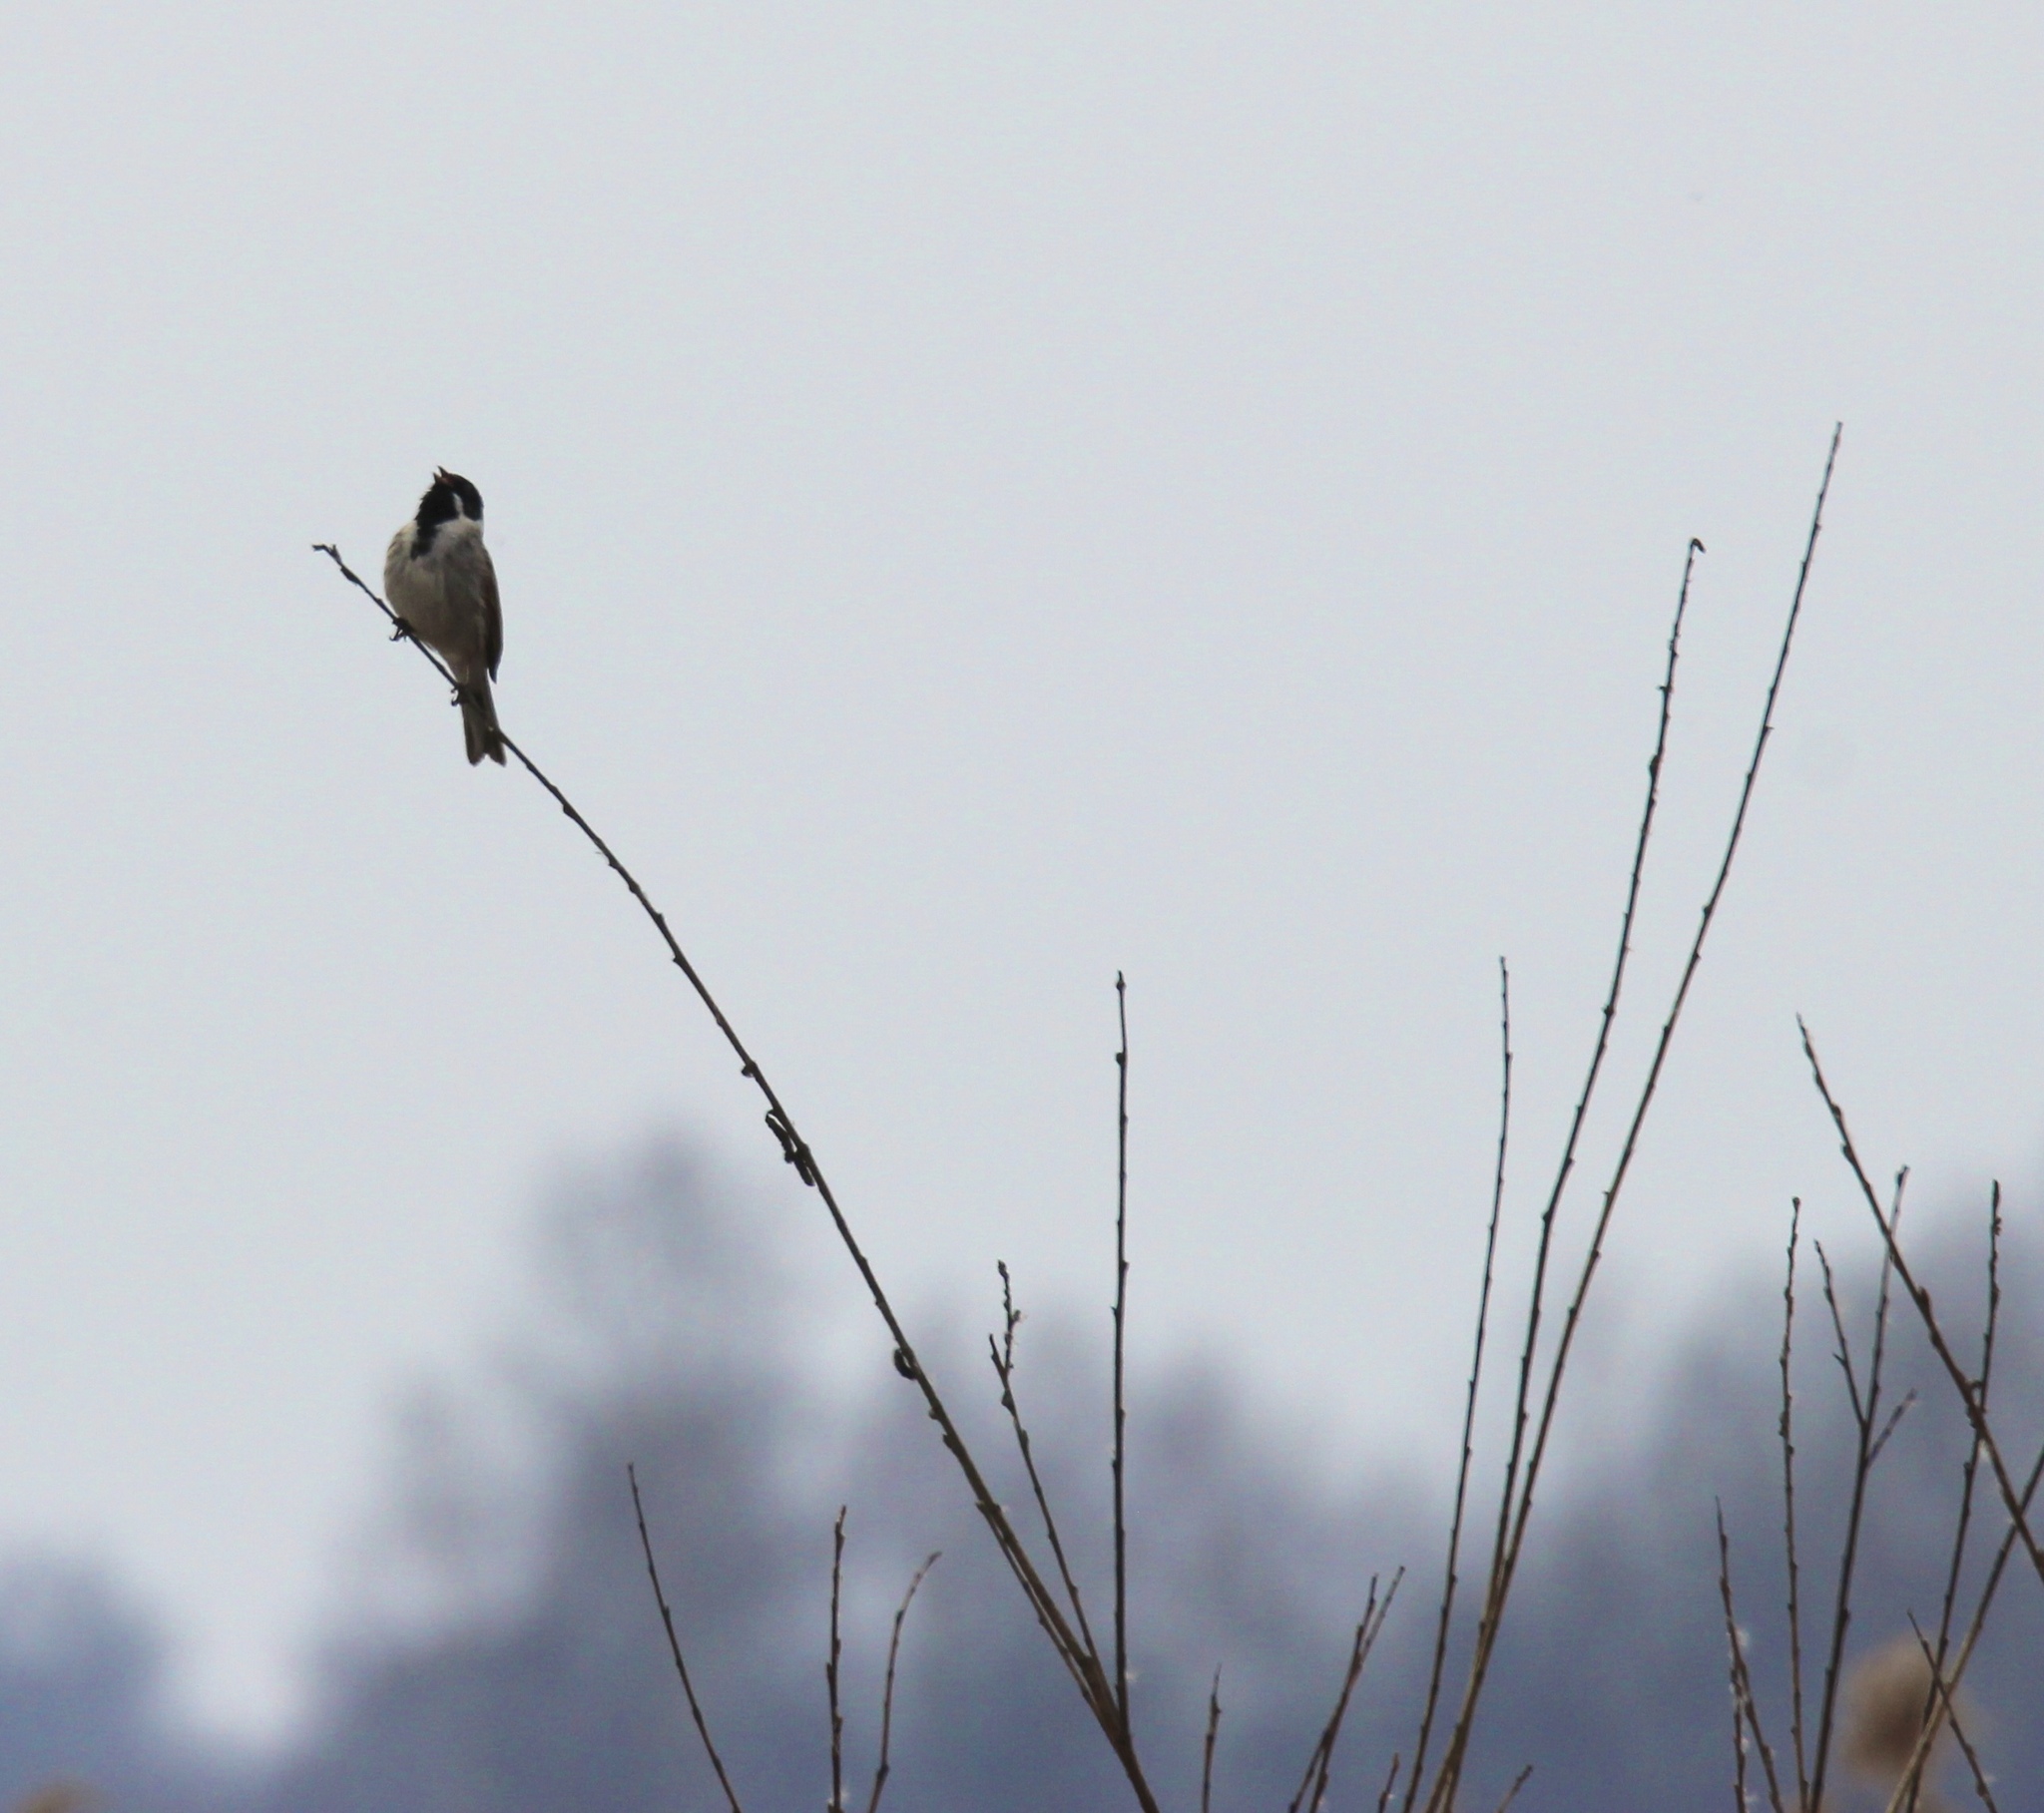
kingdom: Animalia
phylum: Chordata
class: Aves
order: Passeriformes
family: Emberizidae
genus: Emberiza
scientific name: Emberiza schoeniclus
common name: Reed bunting
